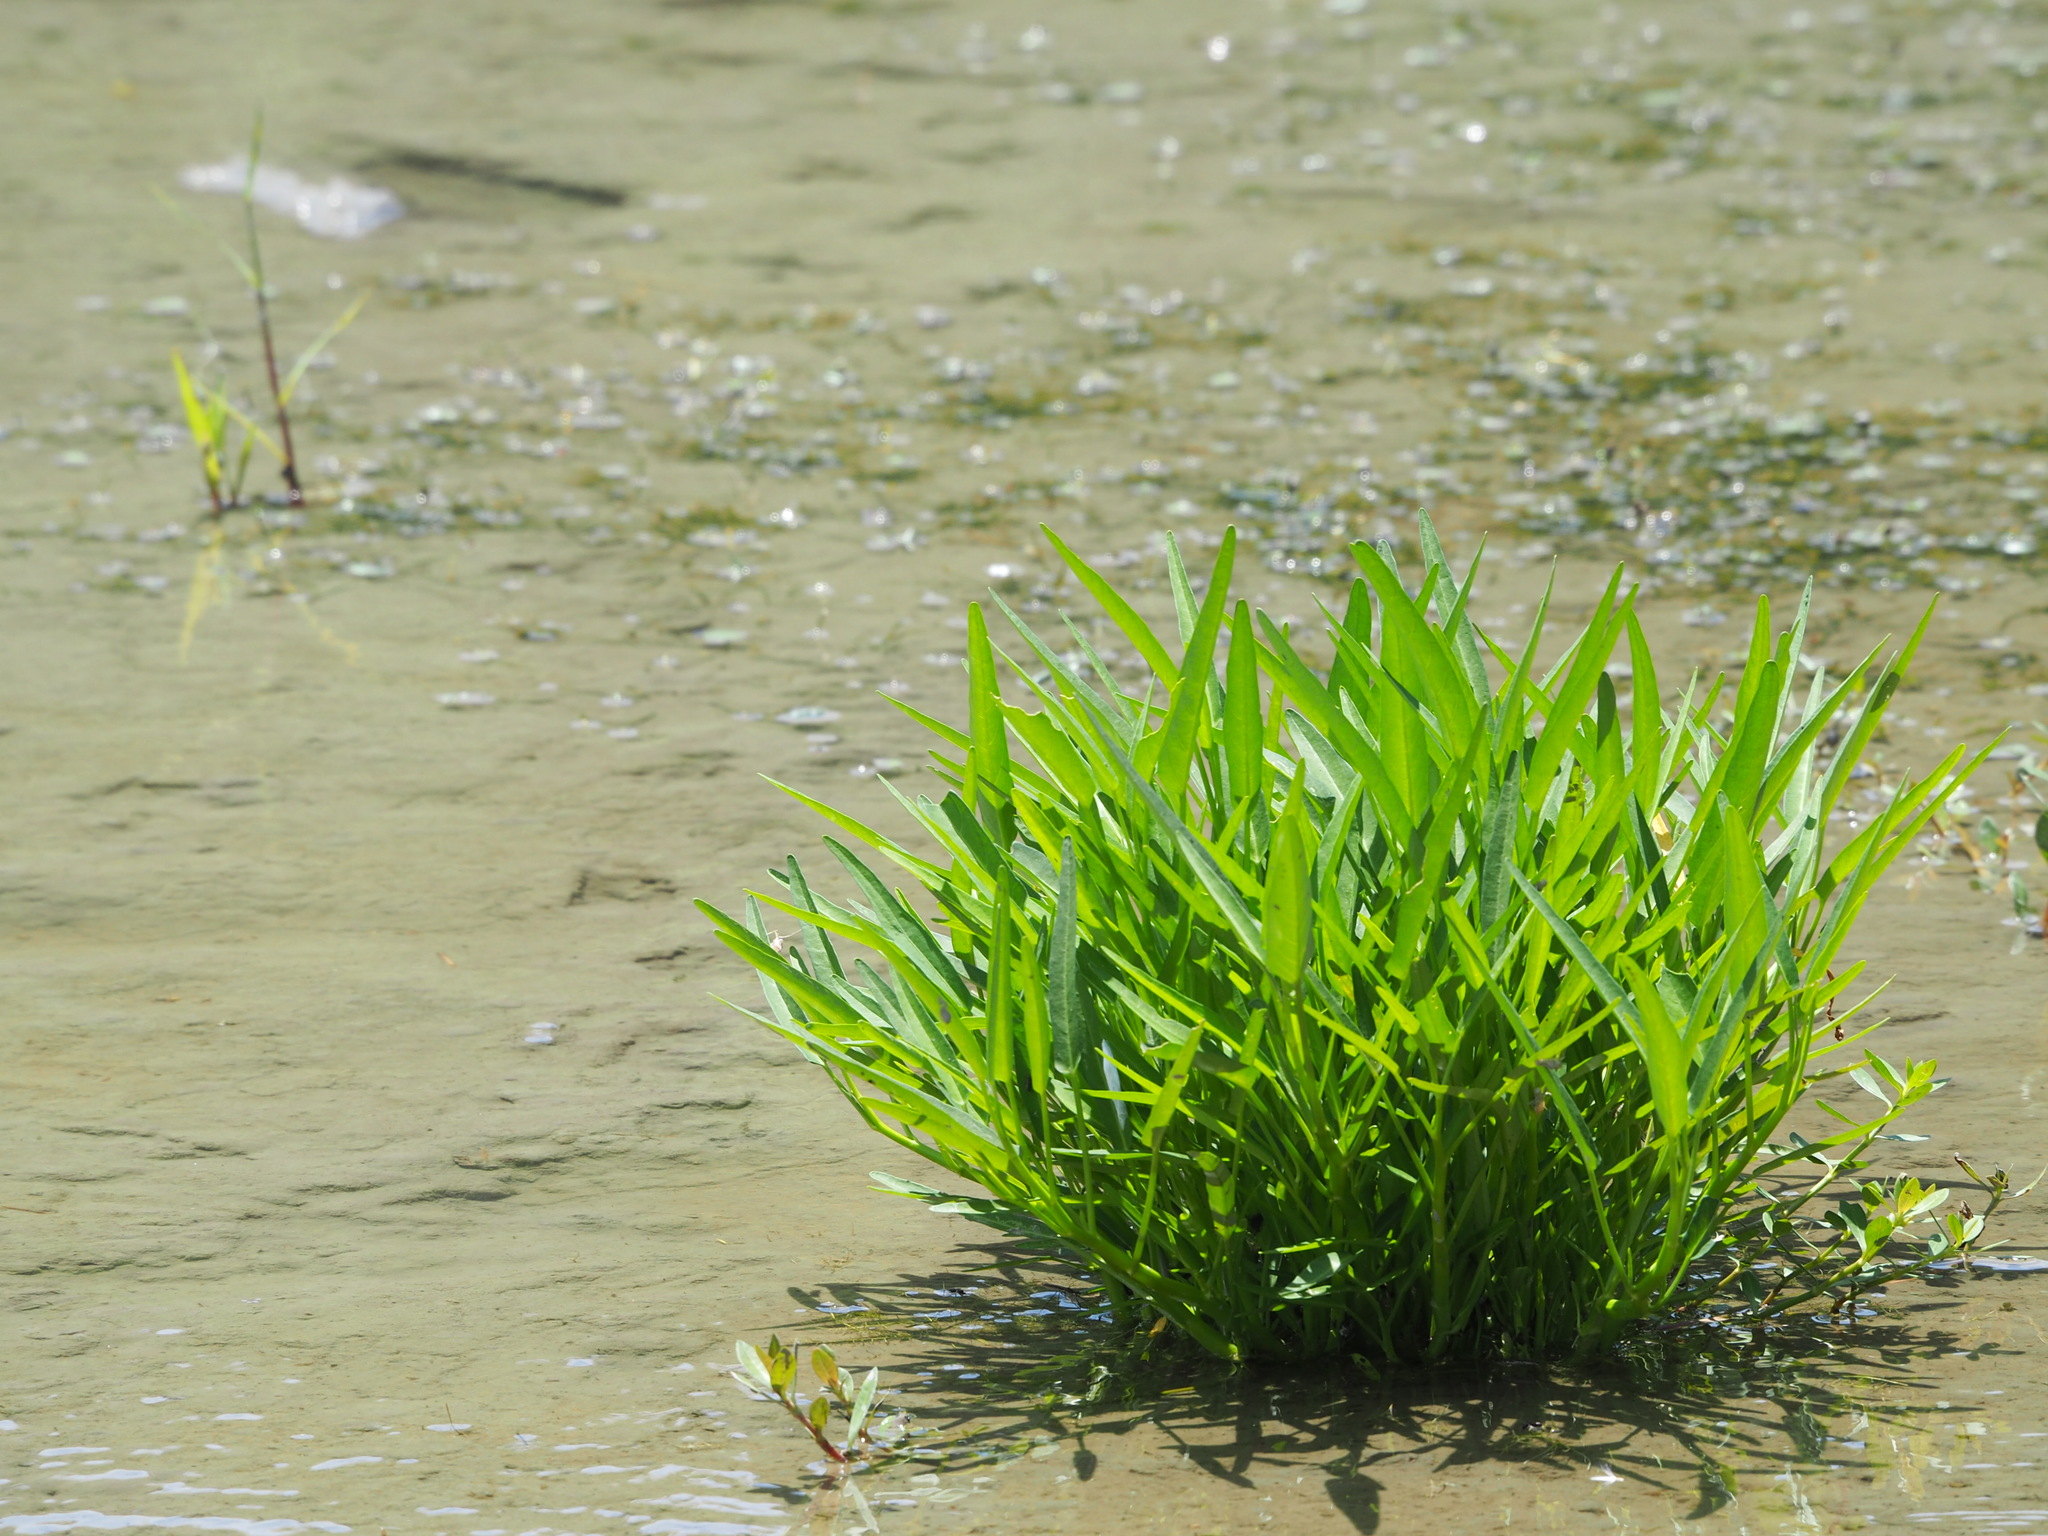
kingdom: Plantae
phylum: Tracheophyta
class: Magnoliopsida
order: Solanales
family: Convolvulaceae
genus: Ipomoea
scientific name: Ipomoea aquatica
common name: Swamp morning-glory
